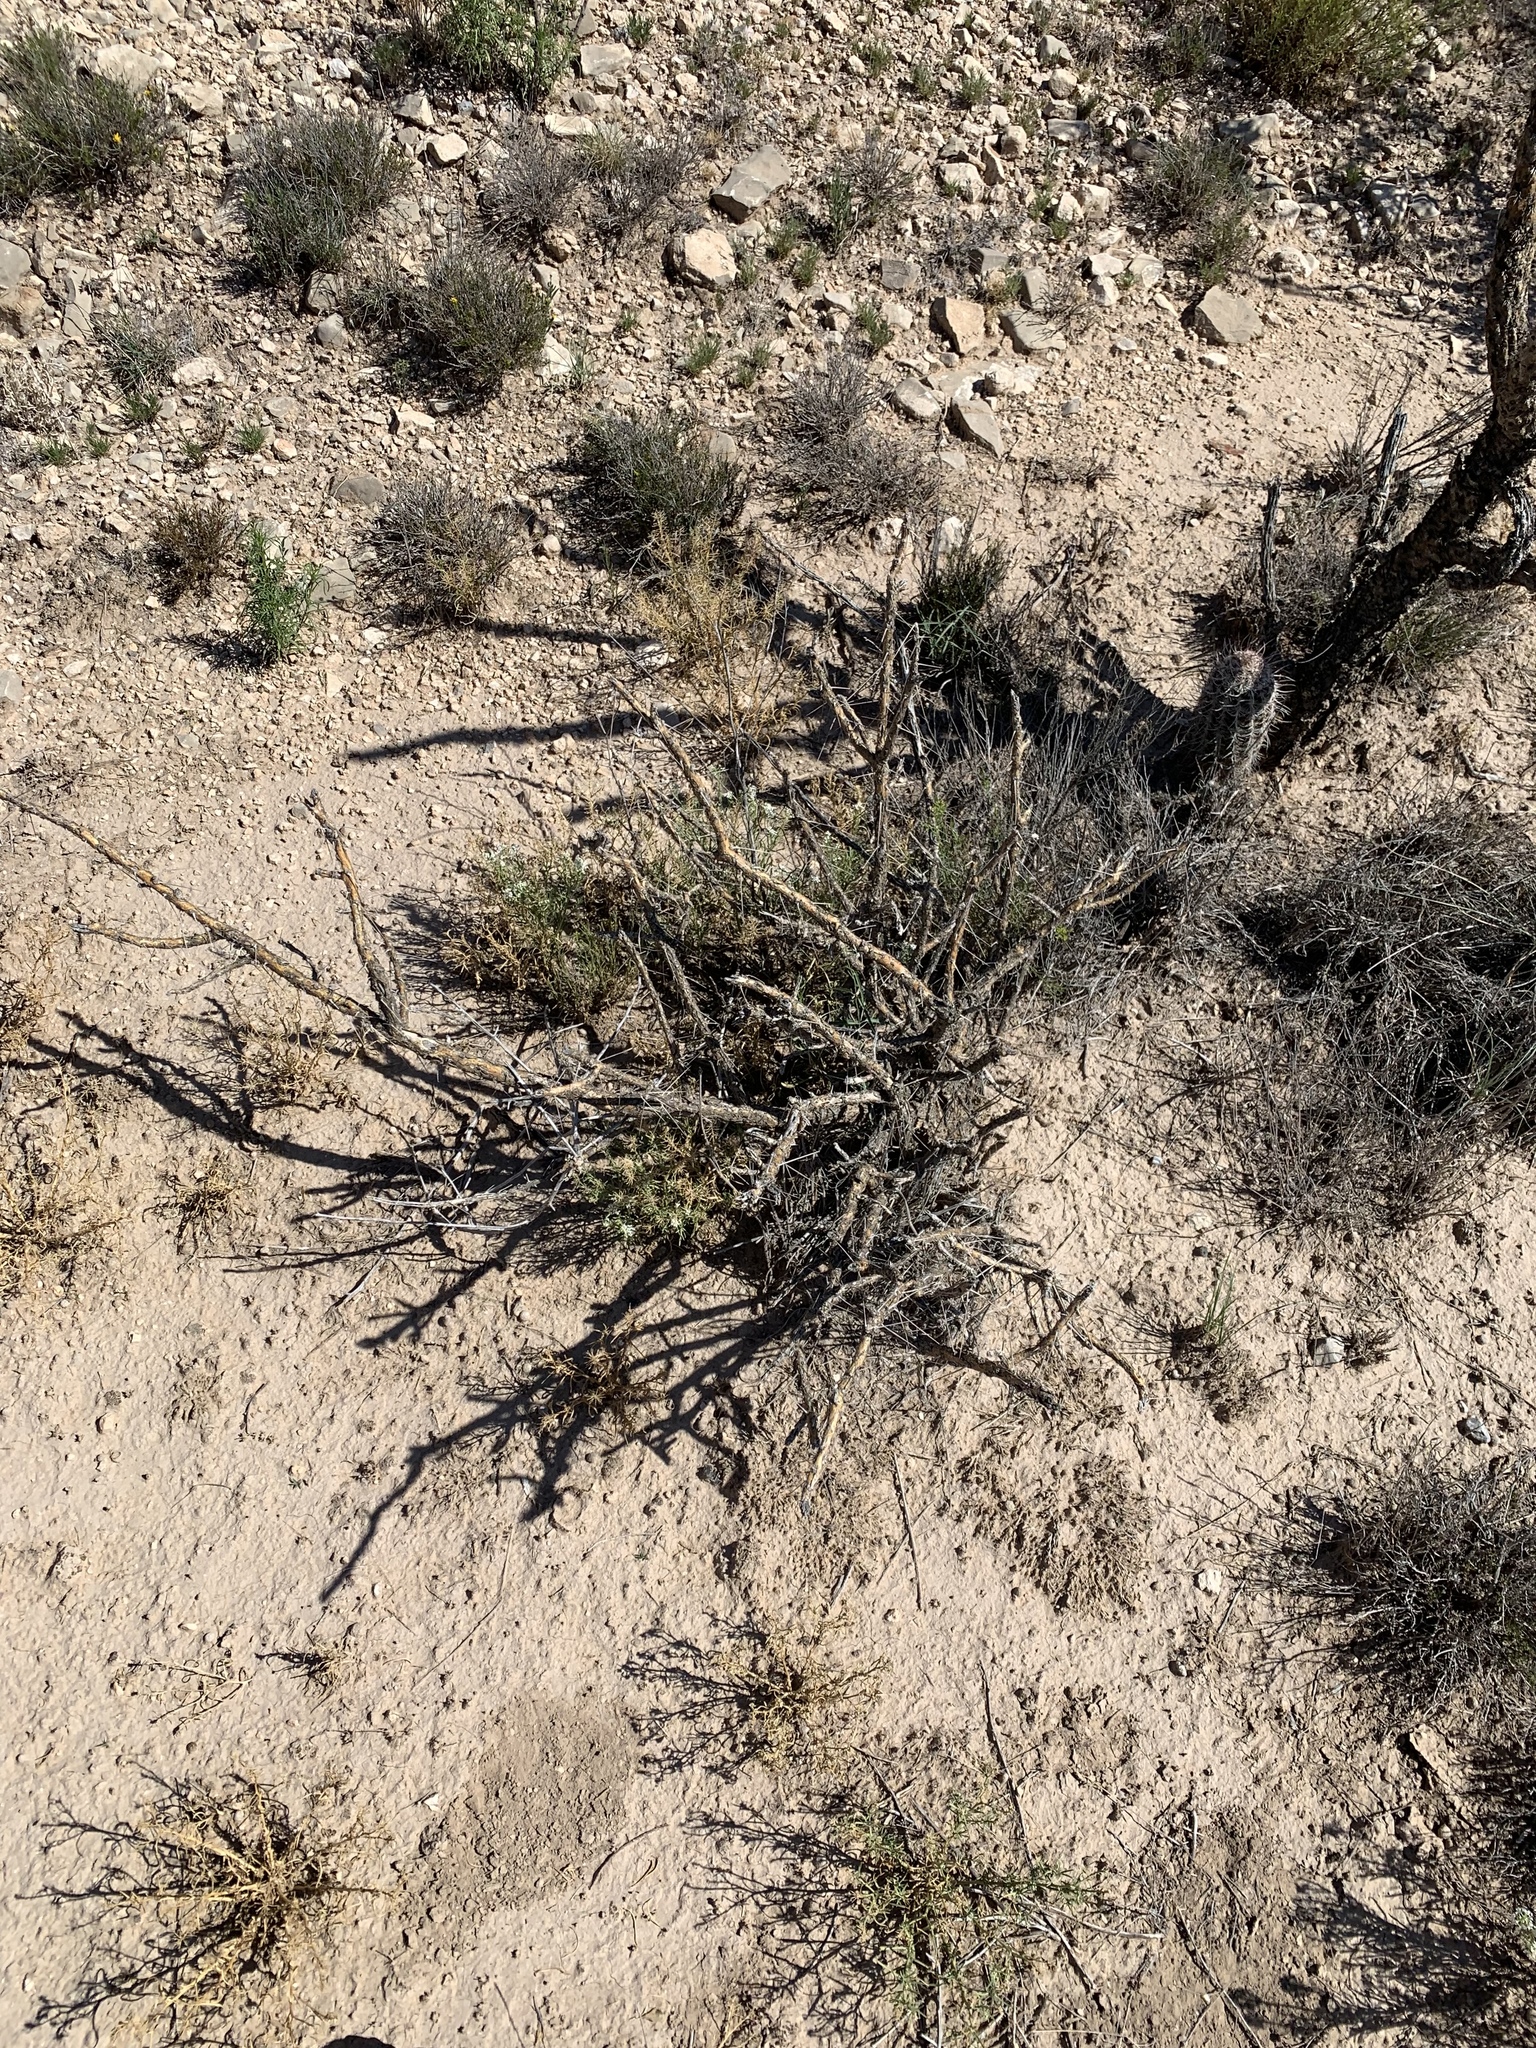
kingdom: Plantae
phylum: Tracheophyta
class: Magnoliopsida
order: Caryophyllales
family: Cactaceae
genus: Cylindropuntia
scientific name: Cylindropuntia leptocaulis
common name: Christmas cactus
